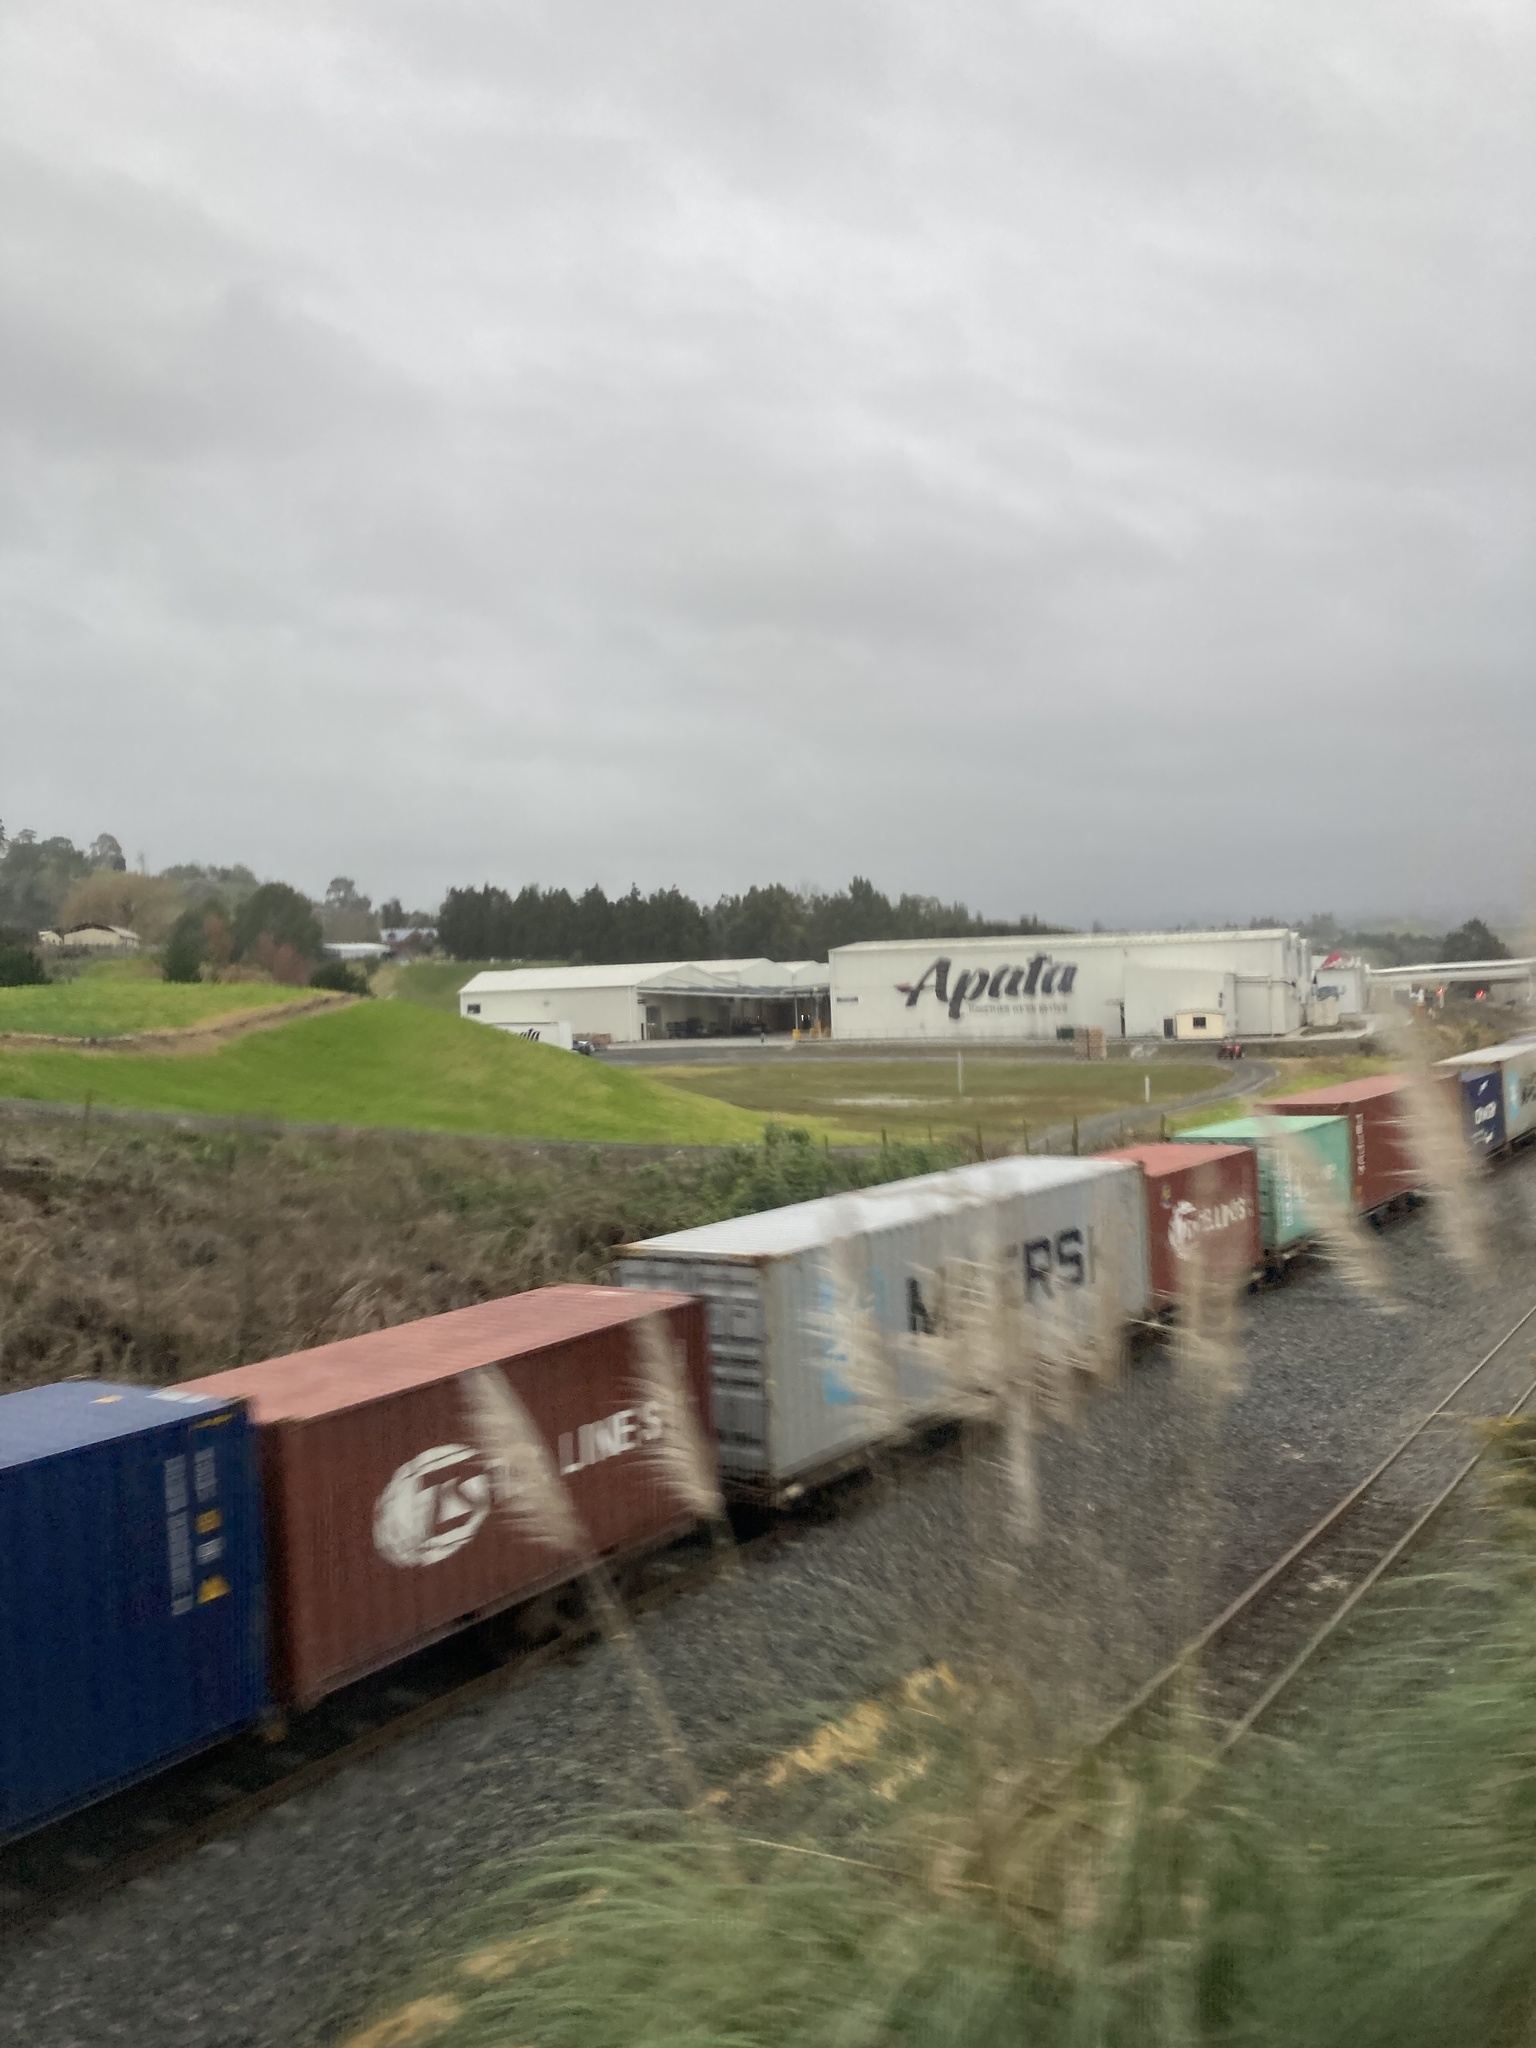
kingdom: Plantae
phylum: Tracheophyta
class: Liliopsida
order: Poales
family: Poaceae
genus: Cortaderia
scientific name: Cortaderia selloana
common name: Uruguayan pampas grass
